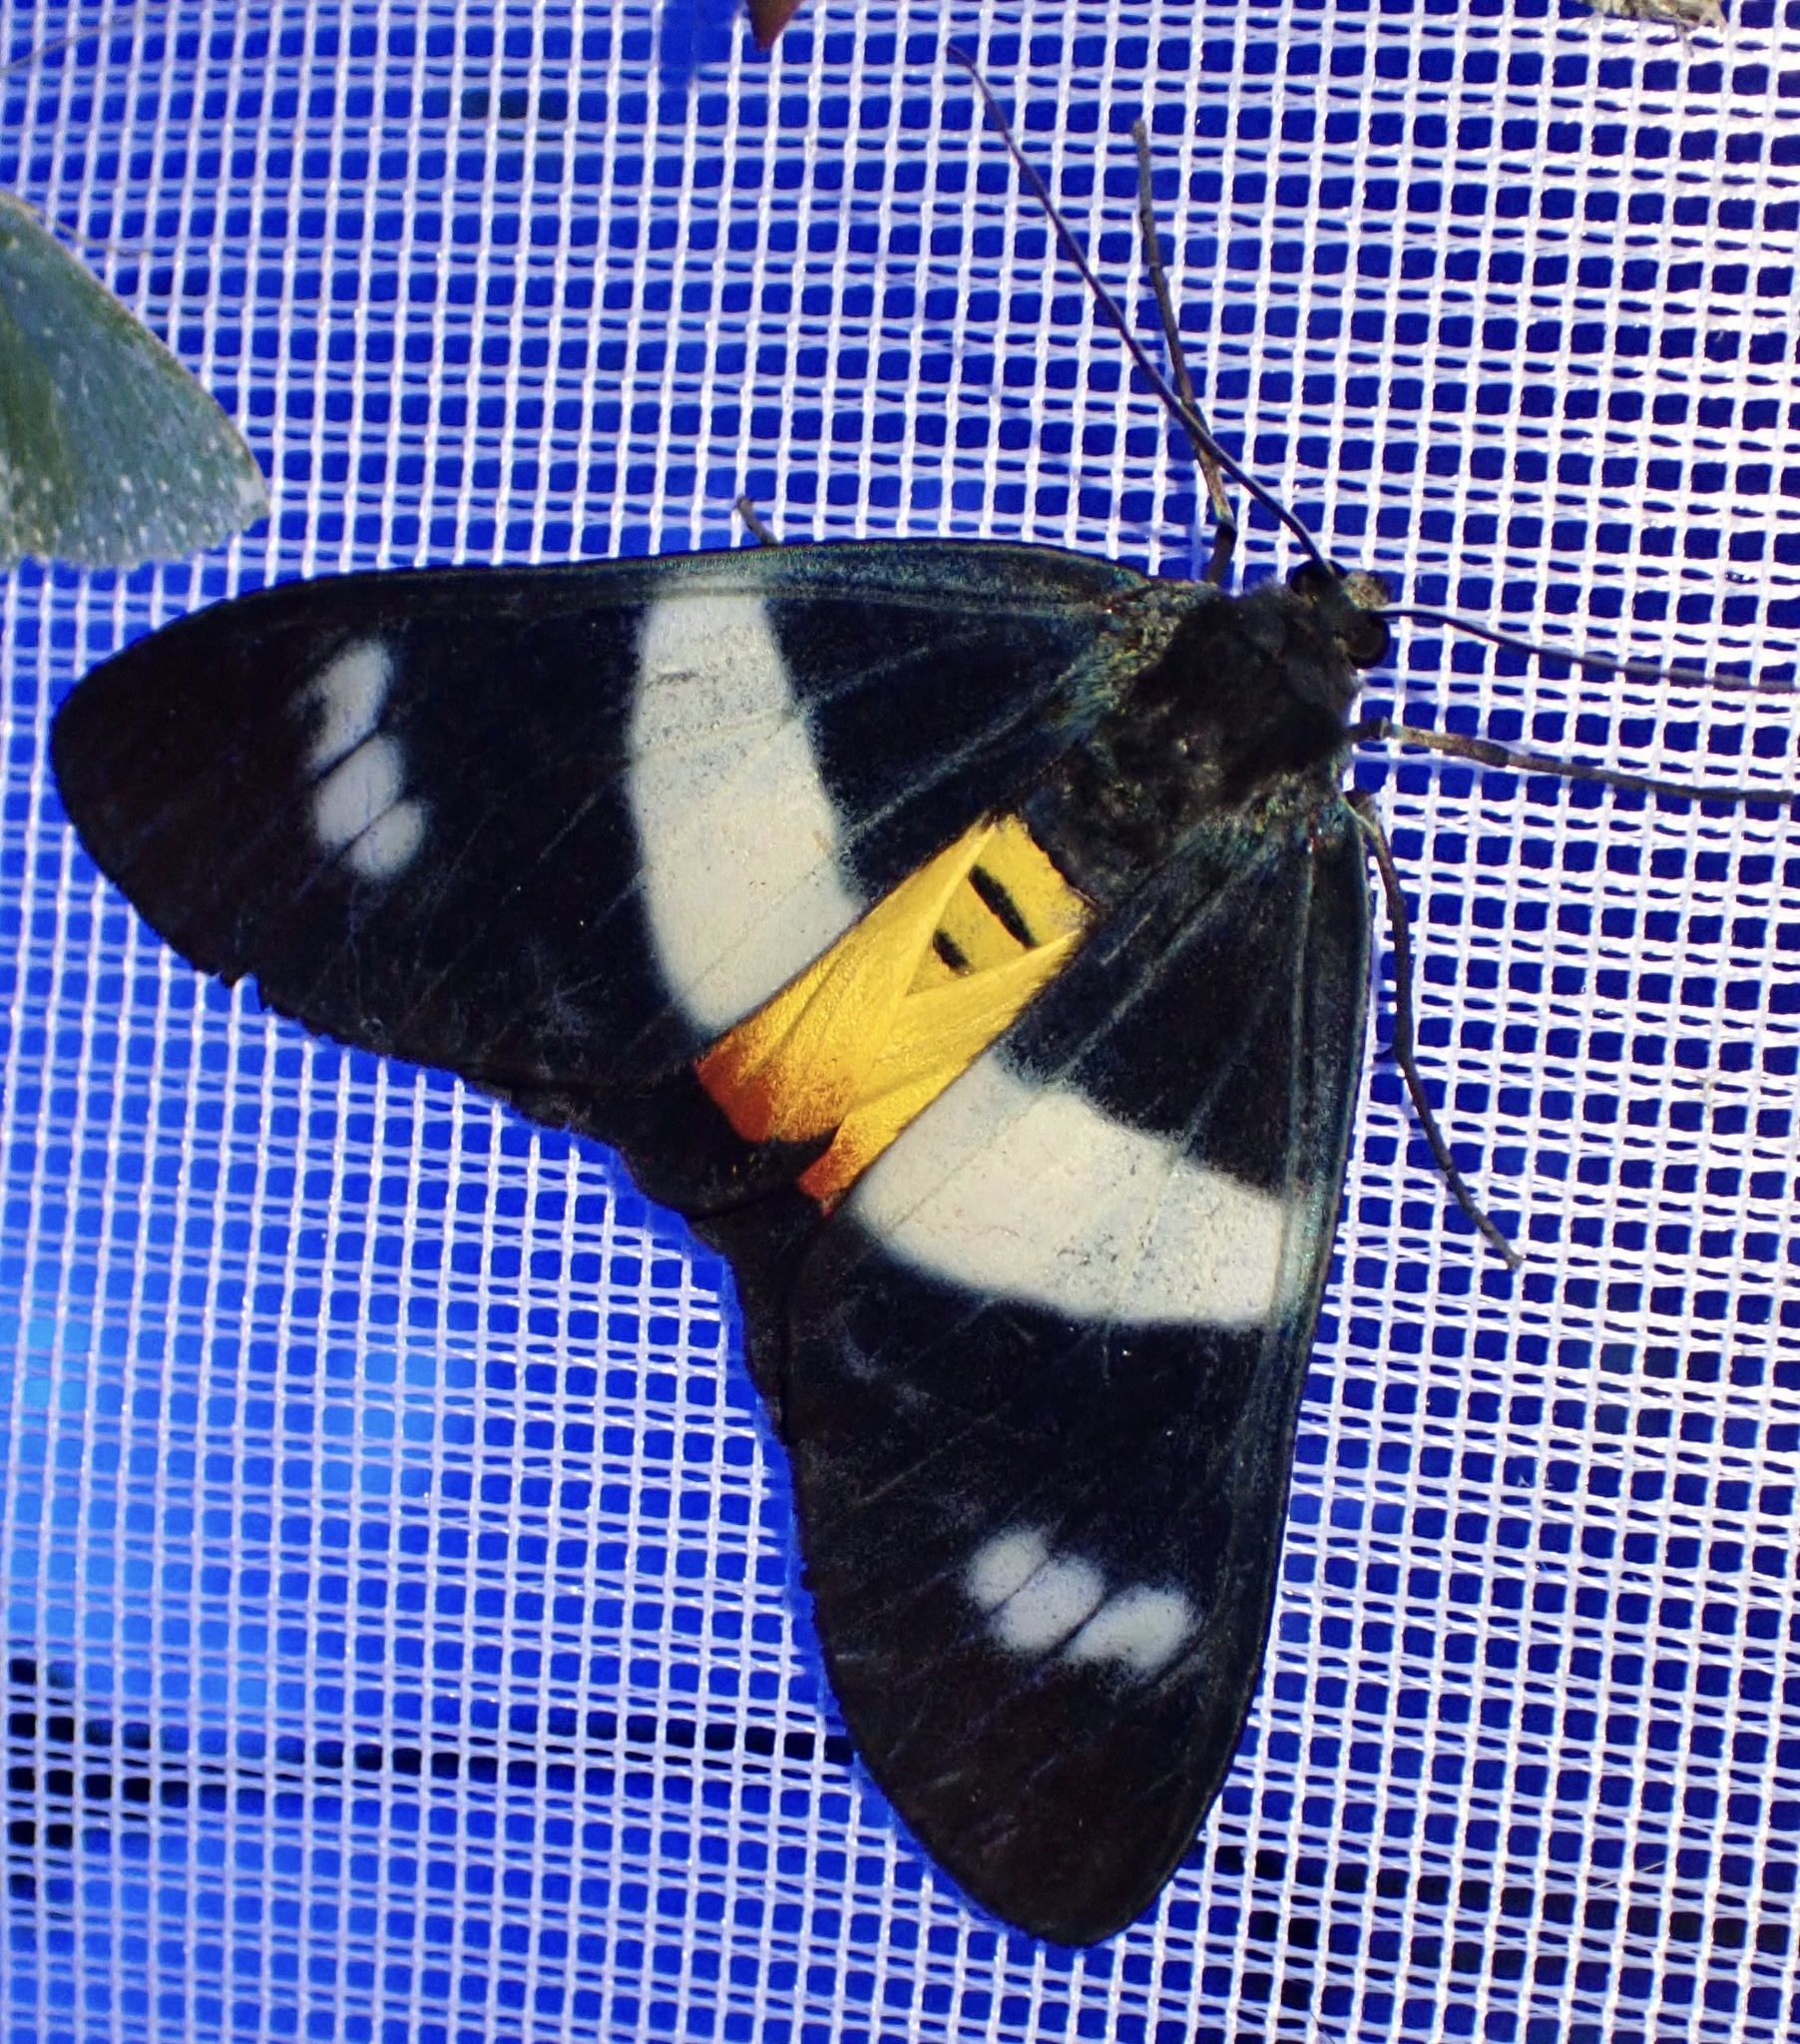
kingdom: Animalia
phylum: Arthropoda
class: Insecta
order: Lepidoptera
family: Geometridae
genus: Callhistia
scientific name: Callhistia
